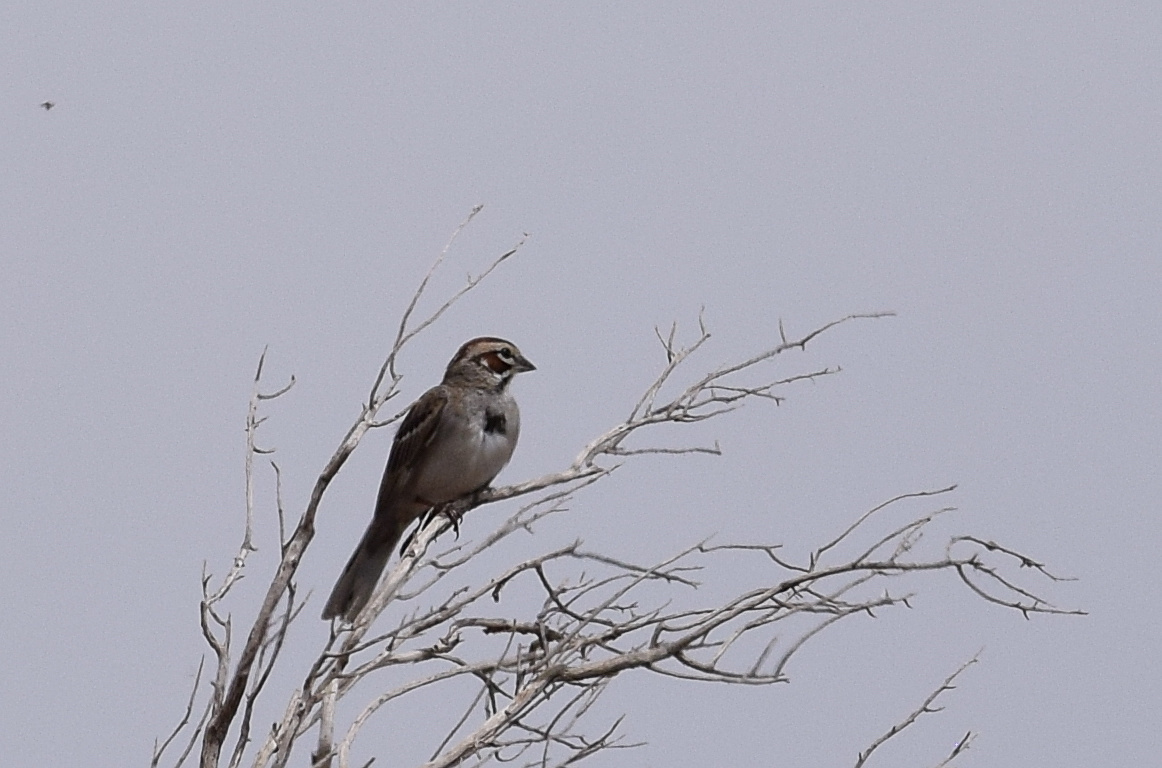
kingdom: Animalia
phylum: Chordata
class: Aves
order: Passeriformes
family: Passerellidae
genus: Chondestes
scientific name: Chondestes grammacus
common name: Lark sparrow
